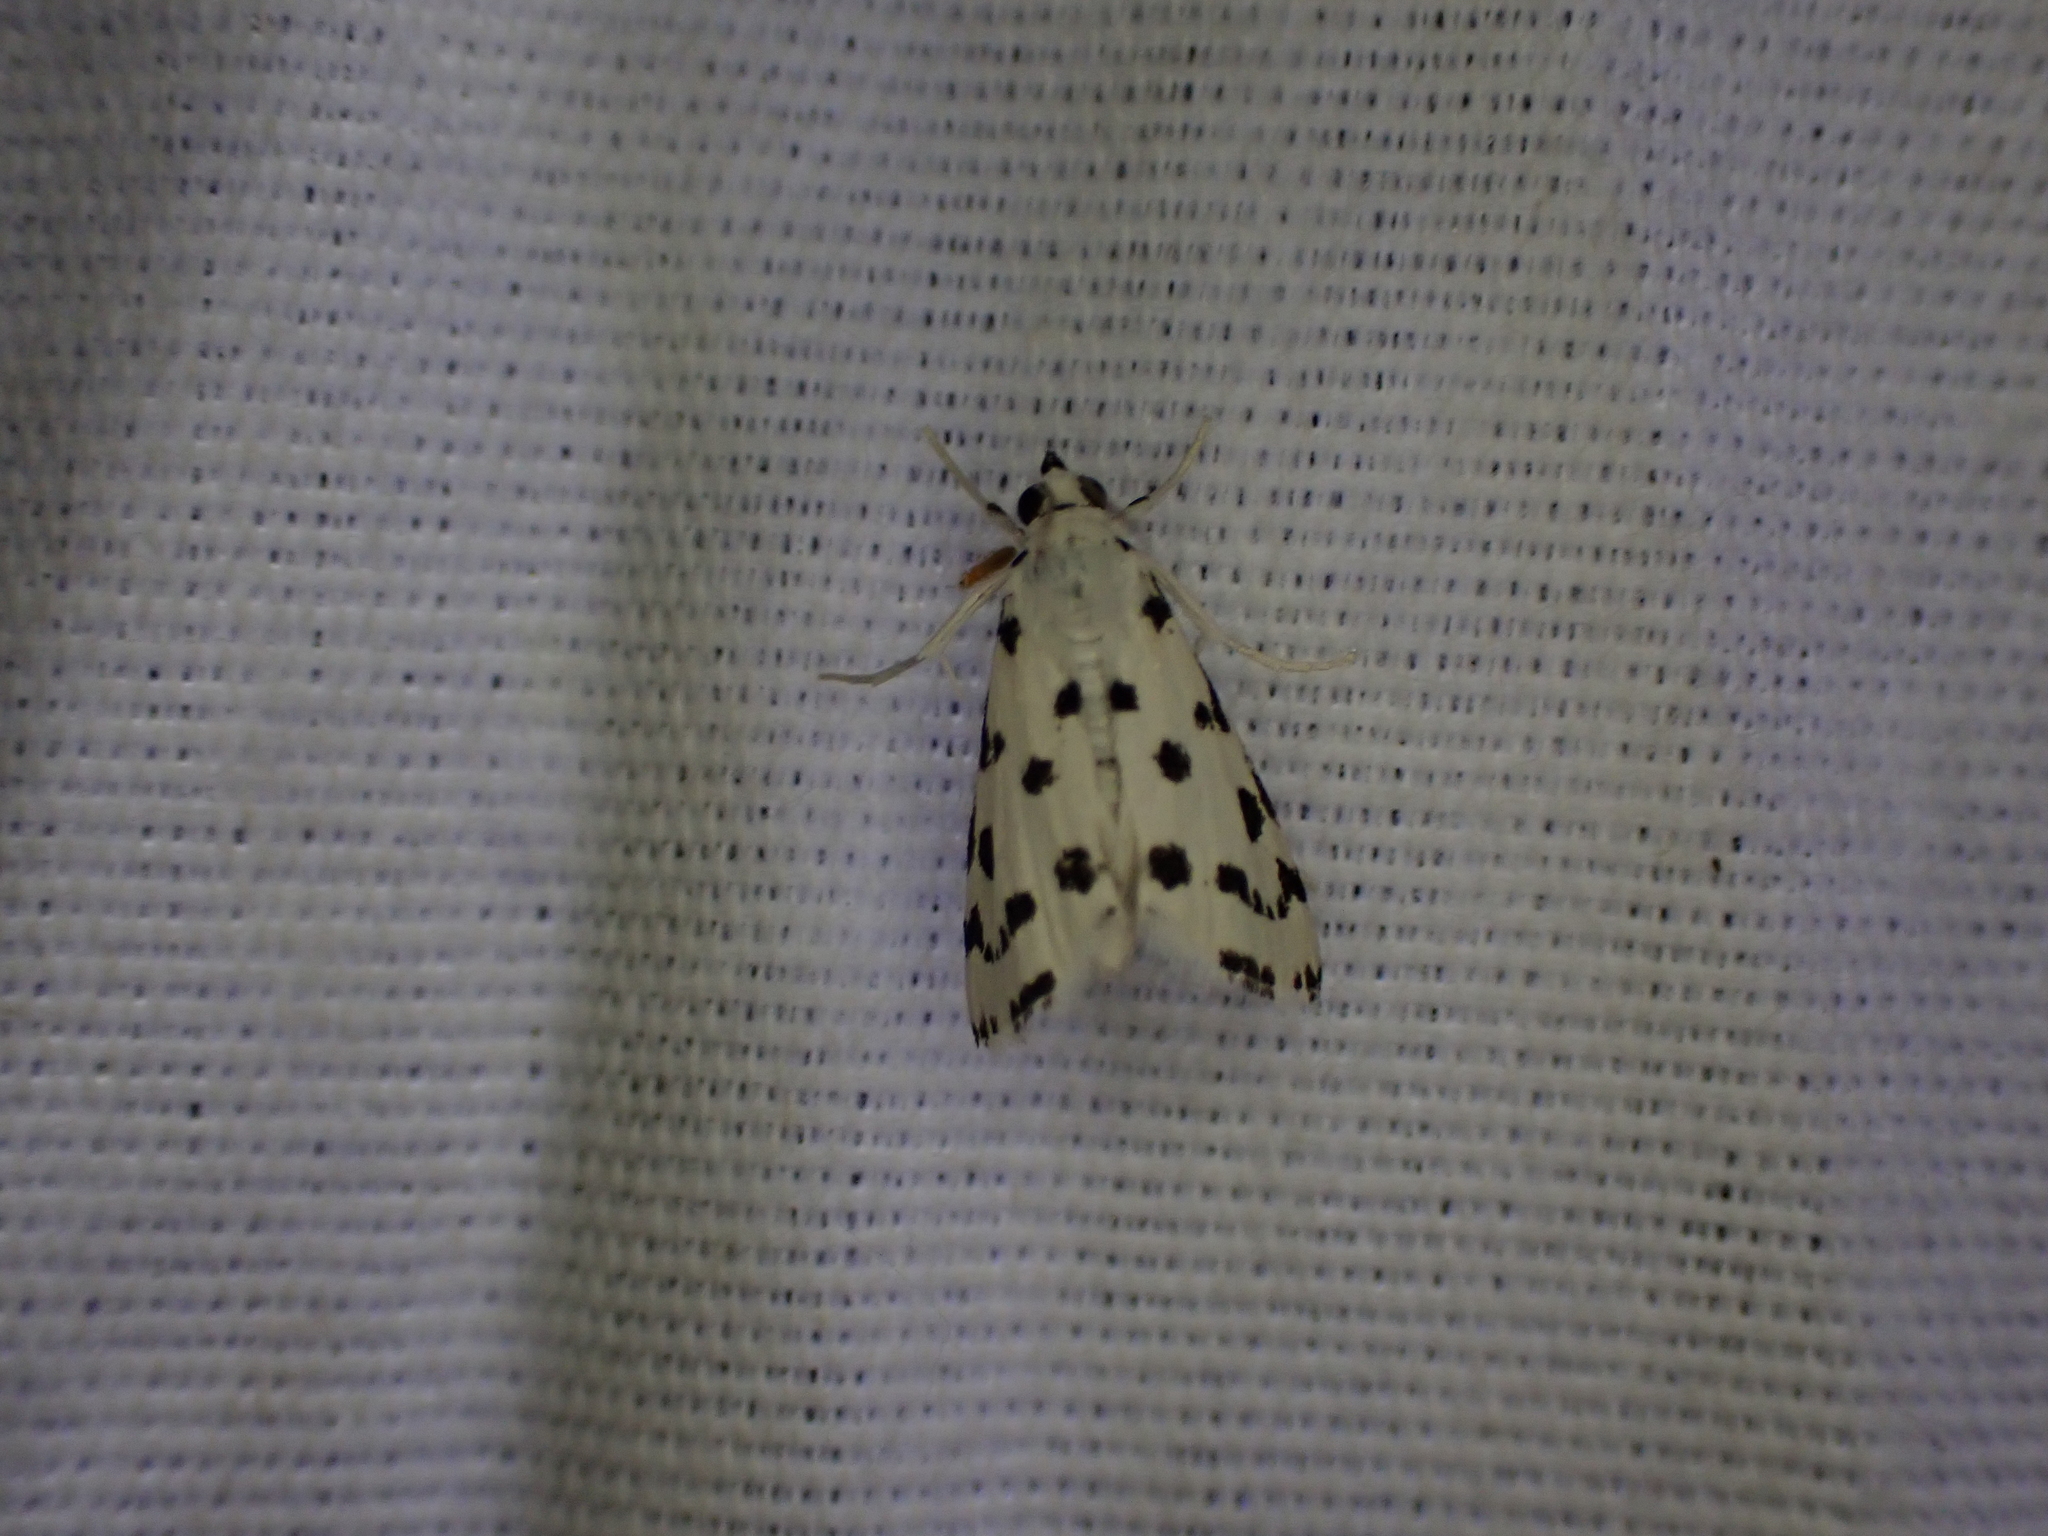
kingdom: Animalia
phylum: Arthropoda
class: Insecta
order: Lepidoptera
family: Crambidae
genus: Eustixia
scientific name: Eustixia pupula
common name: American cabbage pearl
